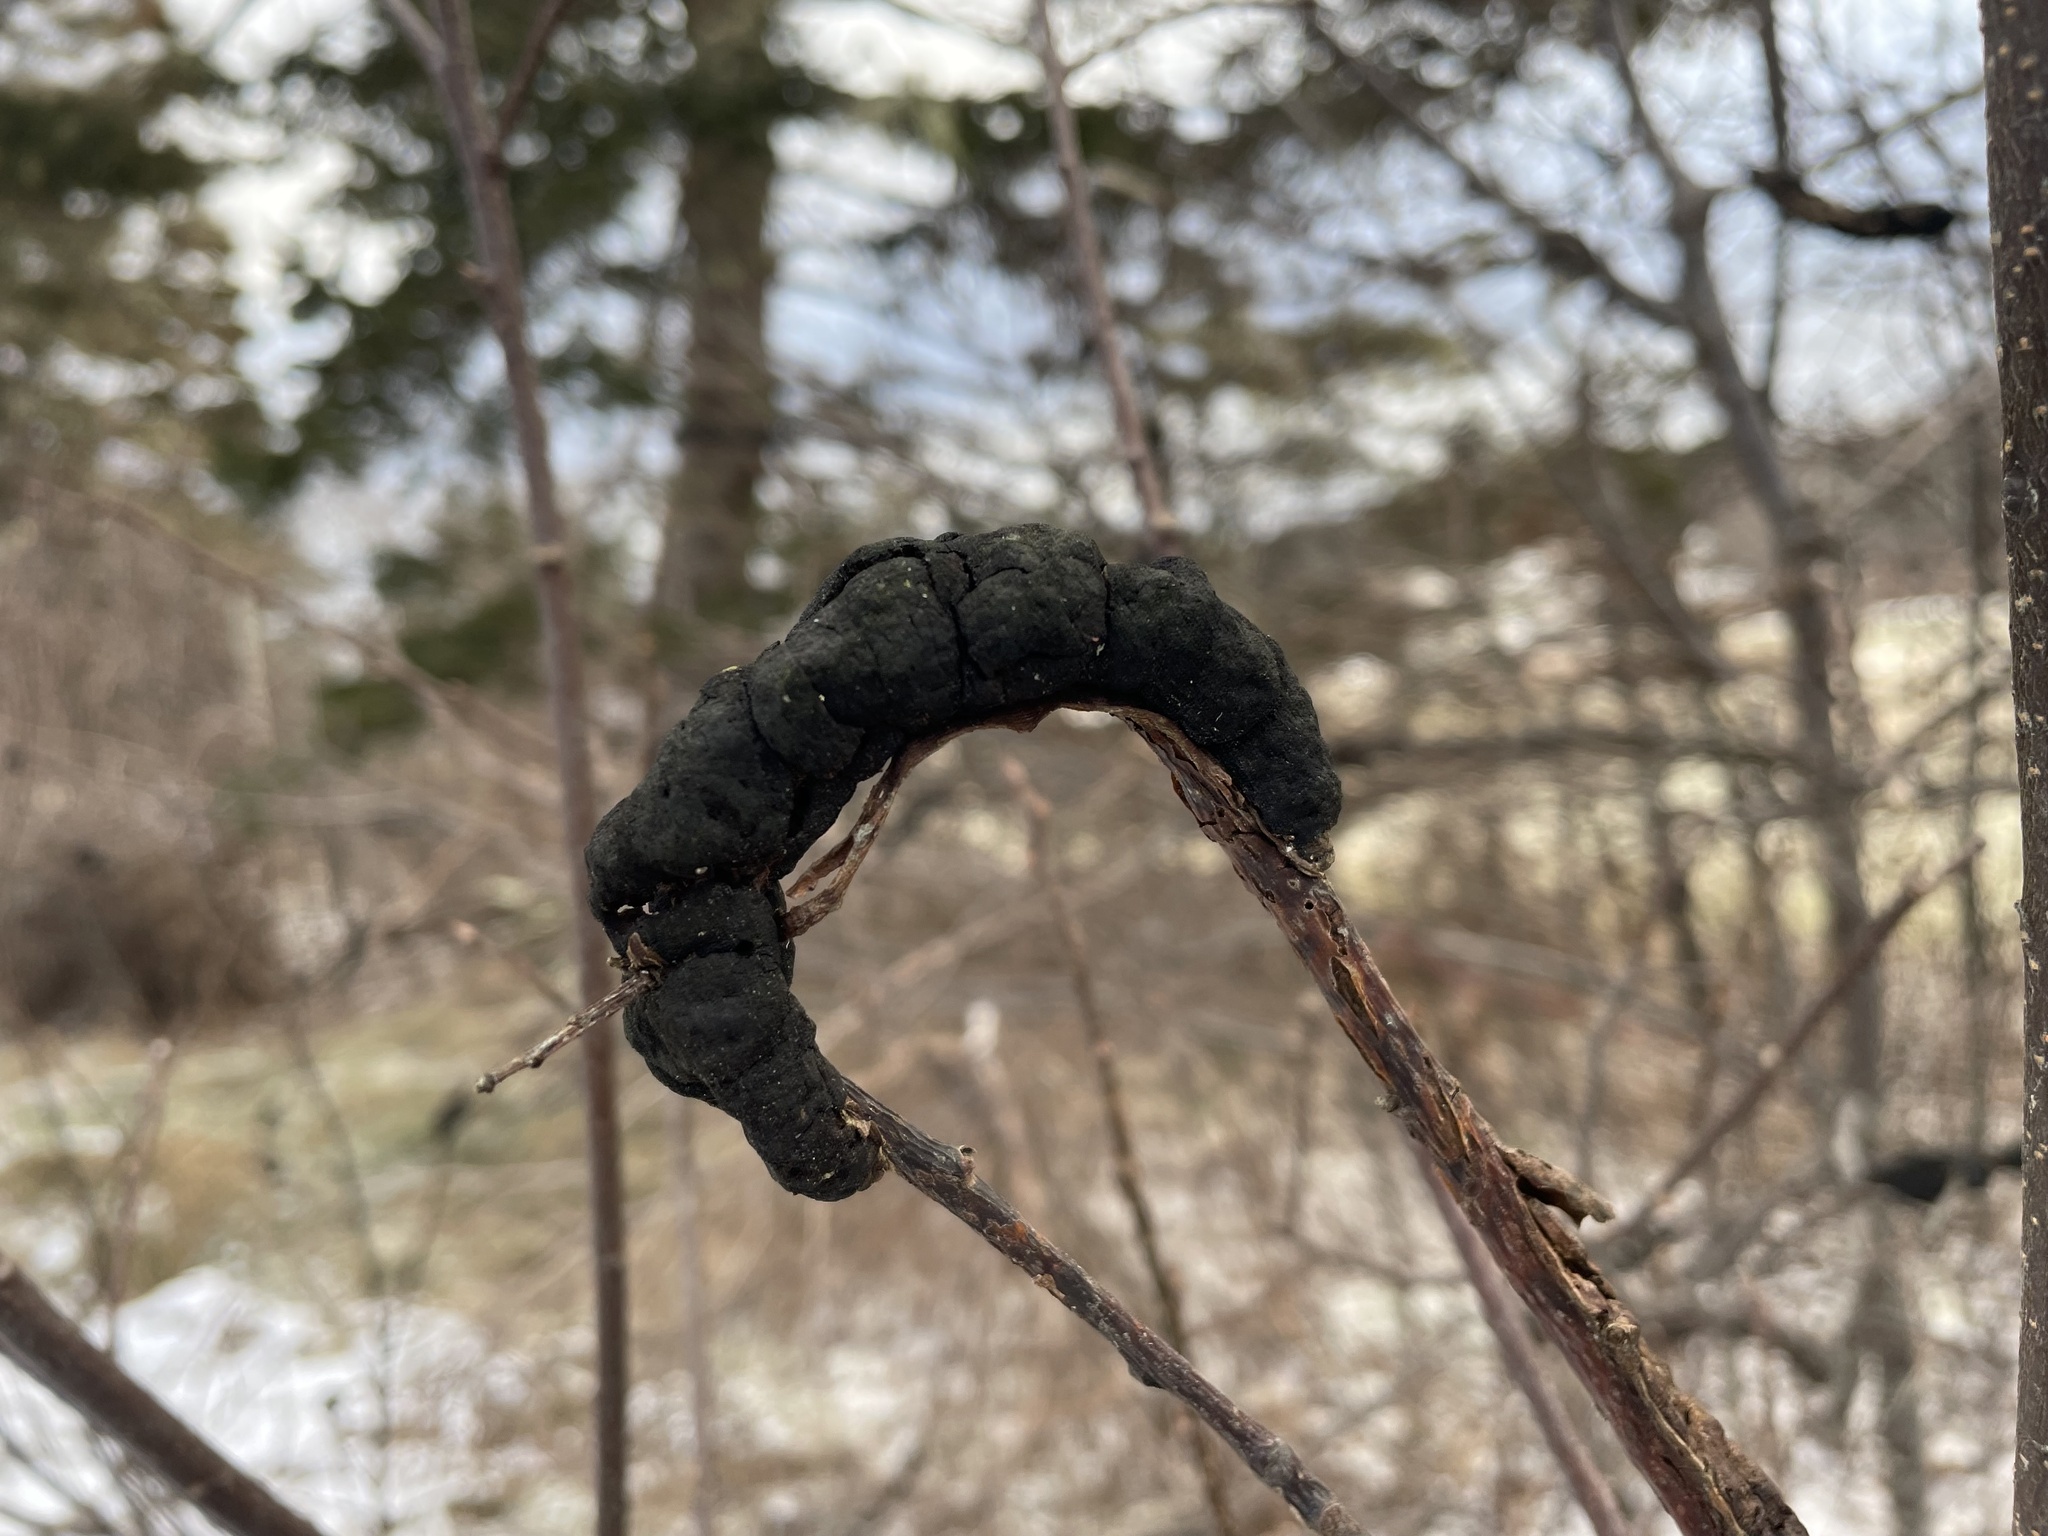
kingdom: Fungi
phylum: Ascomycota
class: Dothideomycetes
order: Venturiales
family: Venturiaceae
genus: Apiosporina
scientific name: Apiosporina morbosa
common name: Black knot
